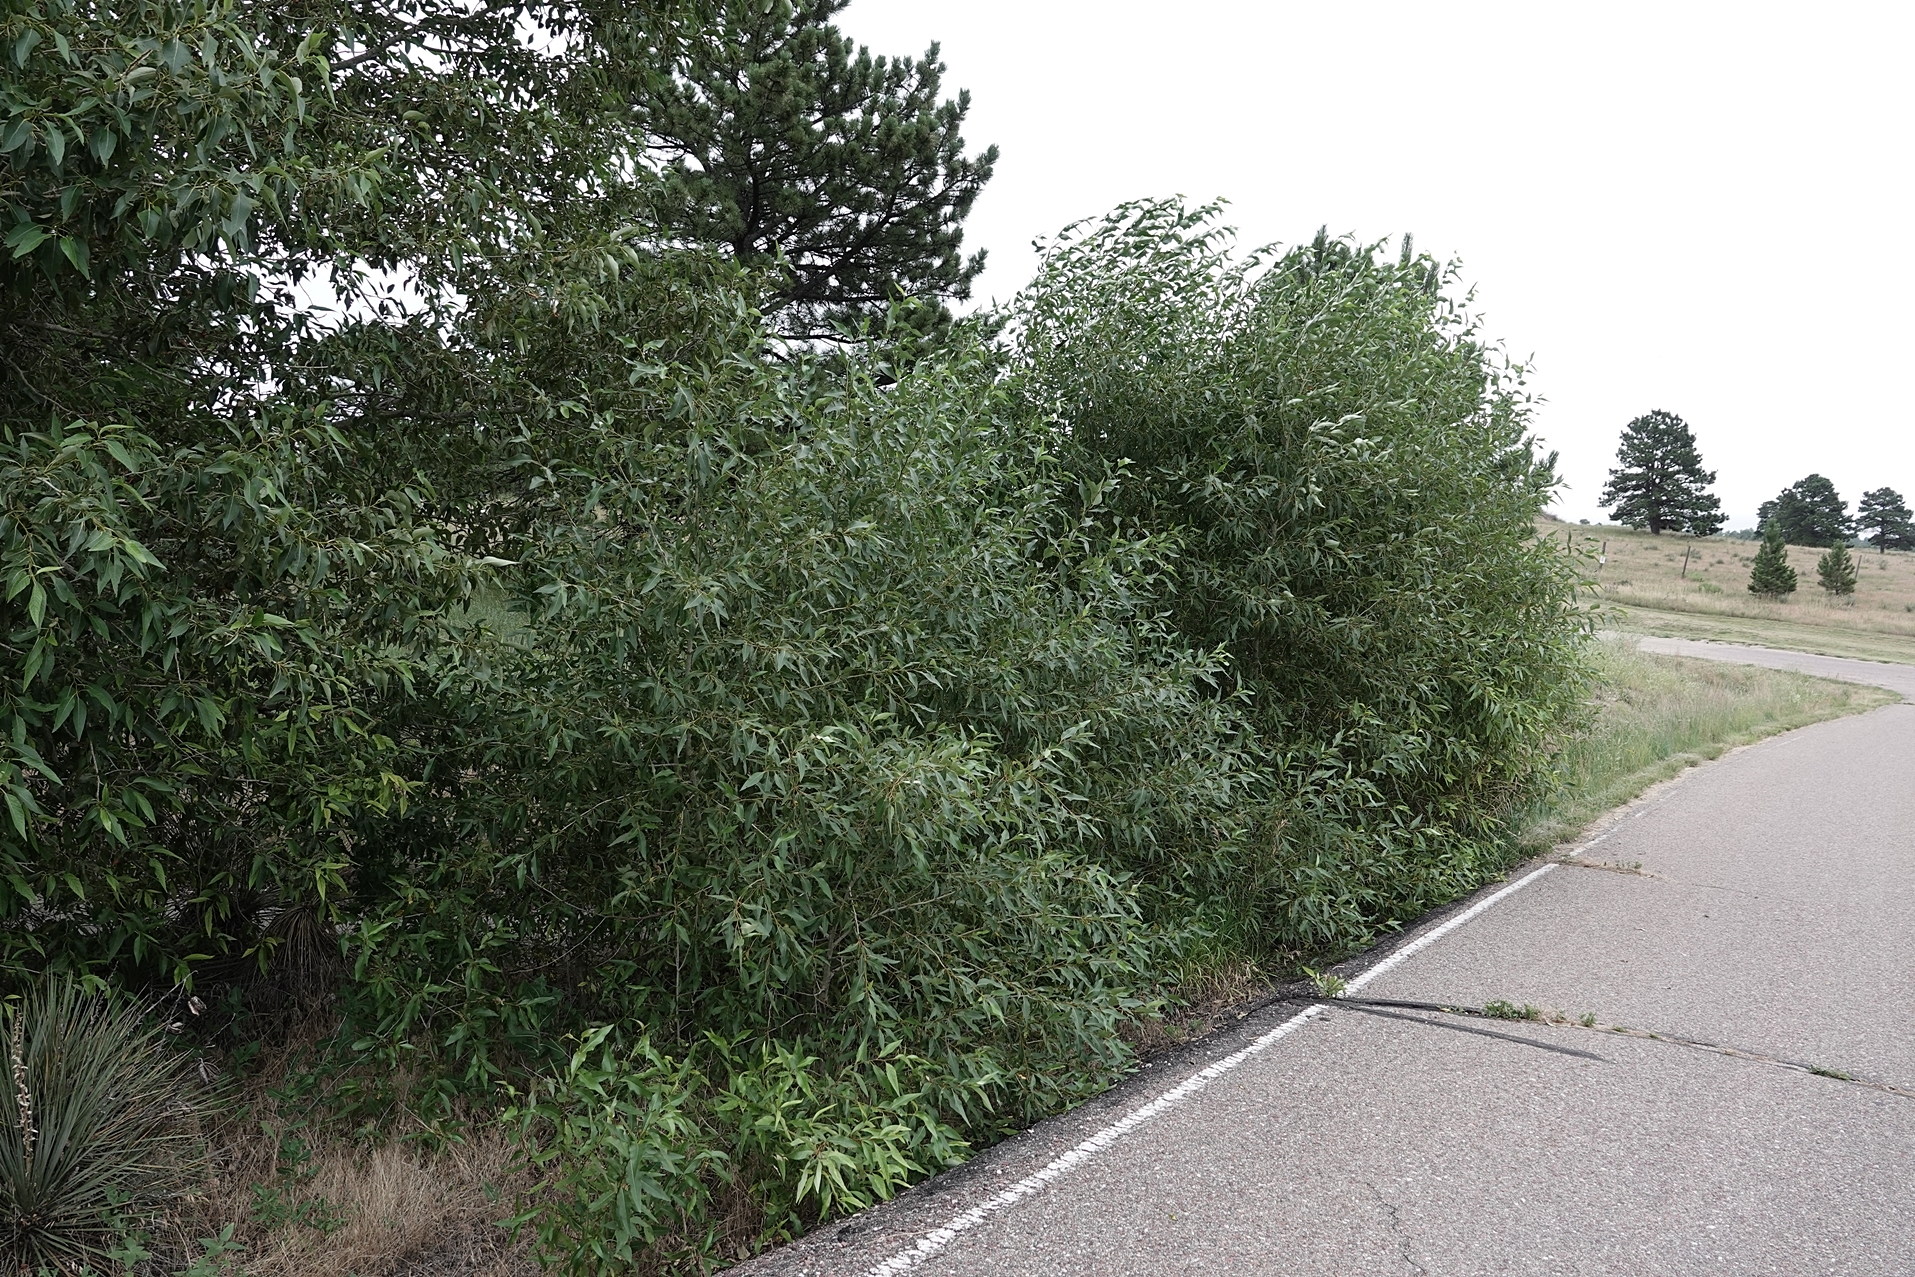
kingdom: Plantae
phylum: Tracheophyta
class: Magnoliopsida
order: Malpighiales
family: Salicaceae
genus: Salix
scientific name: Salix amygdaloides
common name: Peach leaf willow
